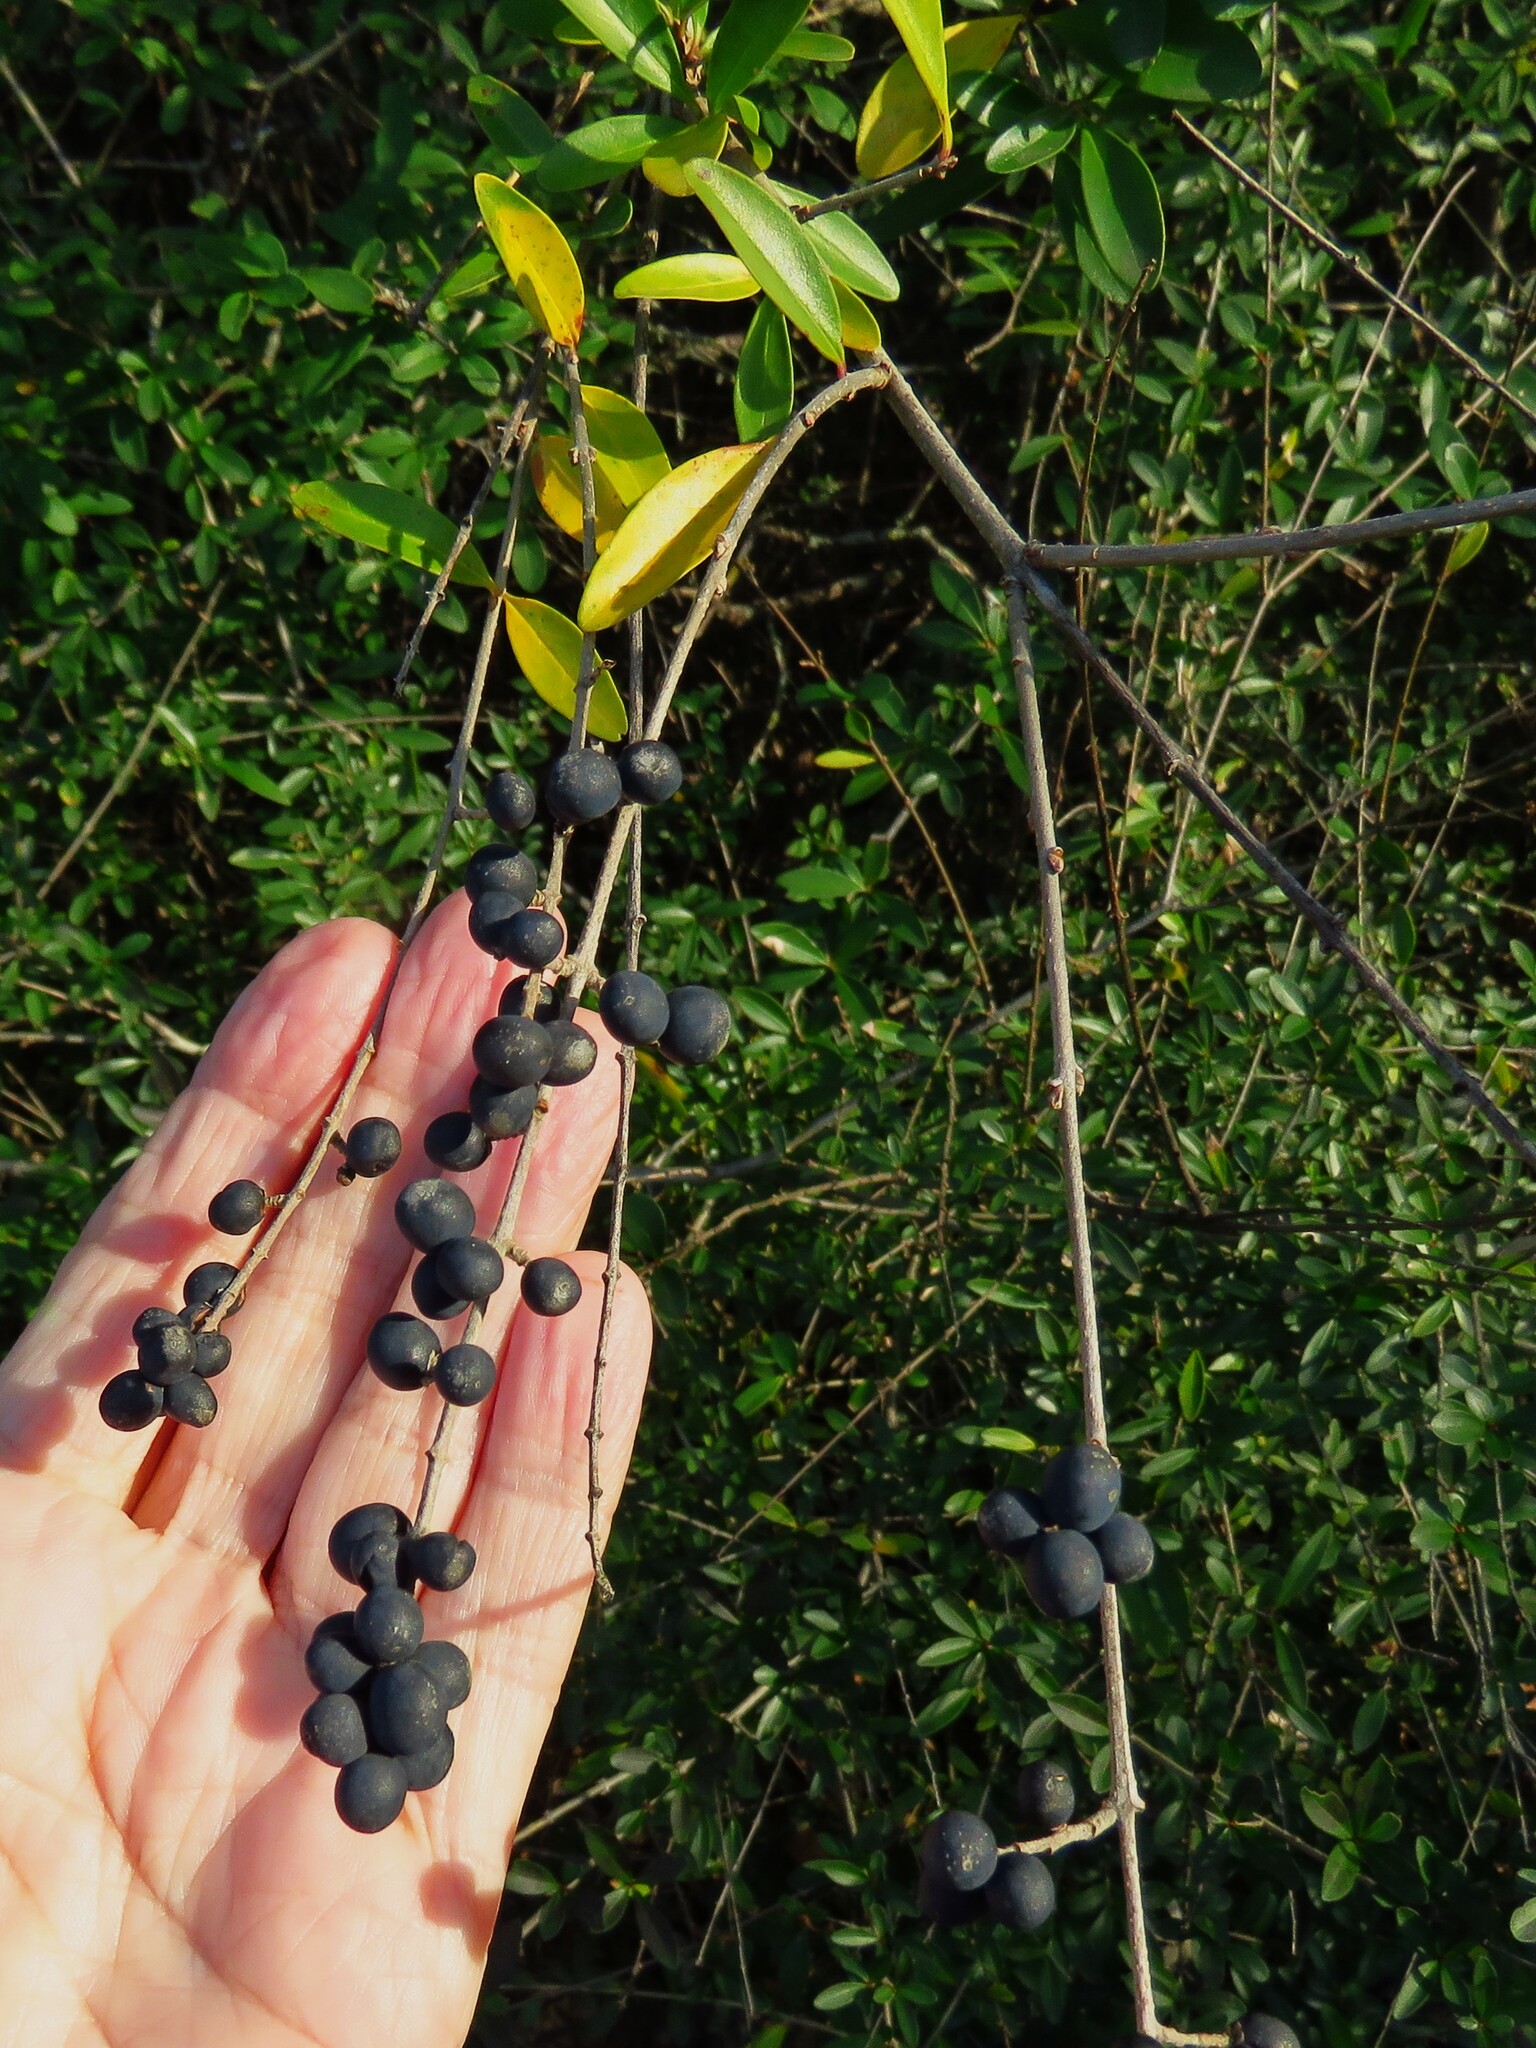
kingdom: Plantae
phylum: Tracheophyta
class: Magnoliopsida
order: Lamiales
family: Oleaceae
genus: Ligustrum
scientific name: Ligustrum quihoui
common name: Waxyleaf privet
